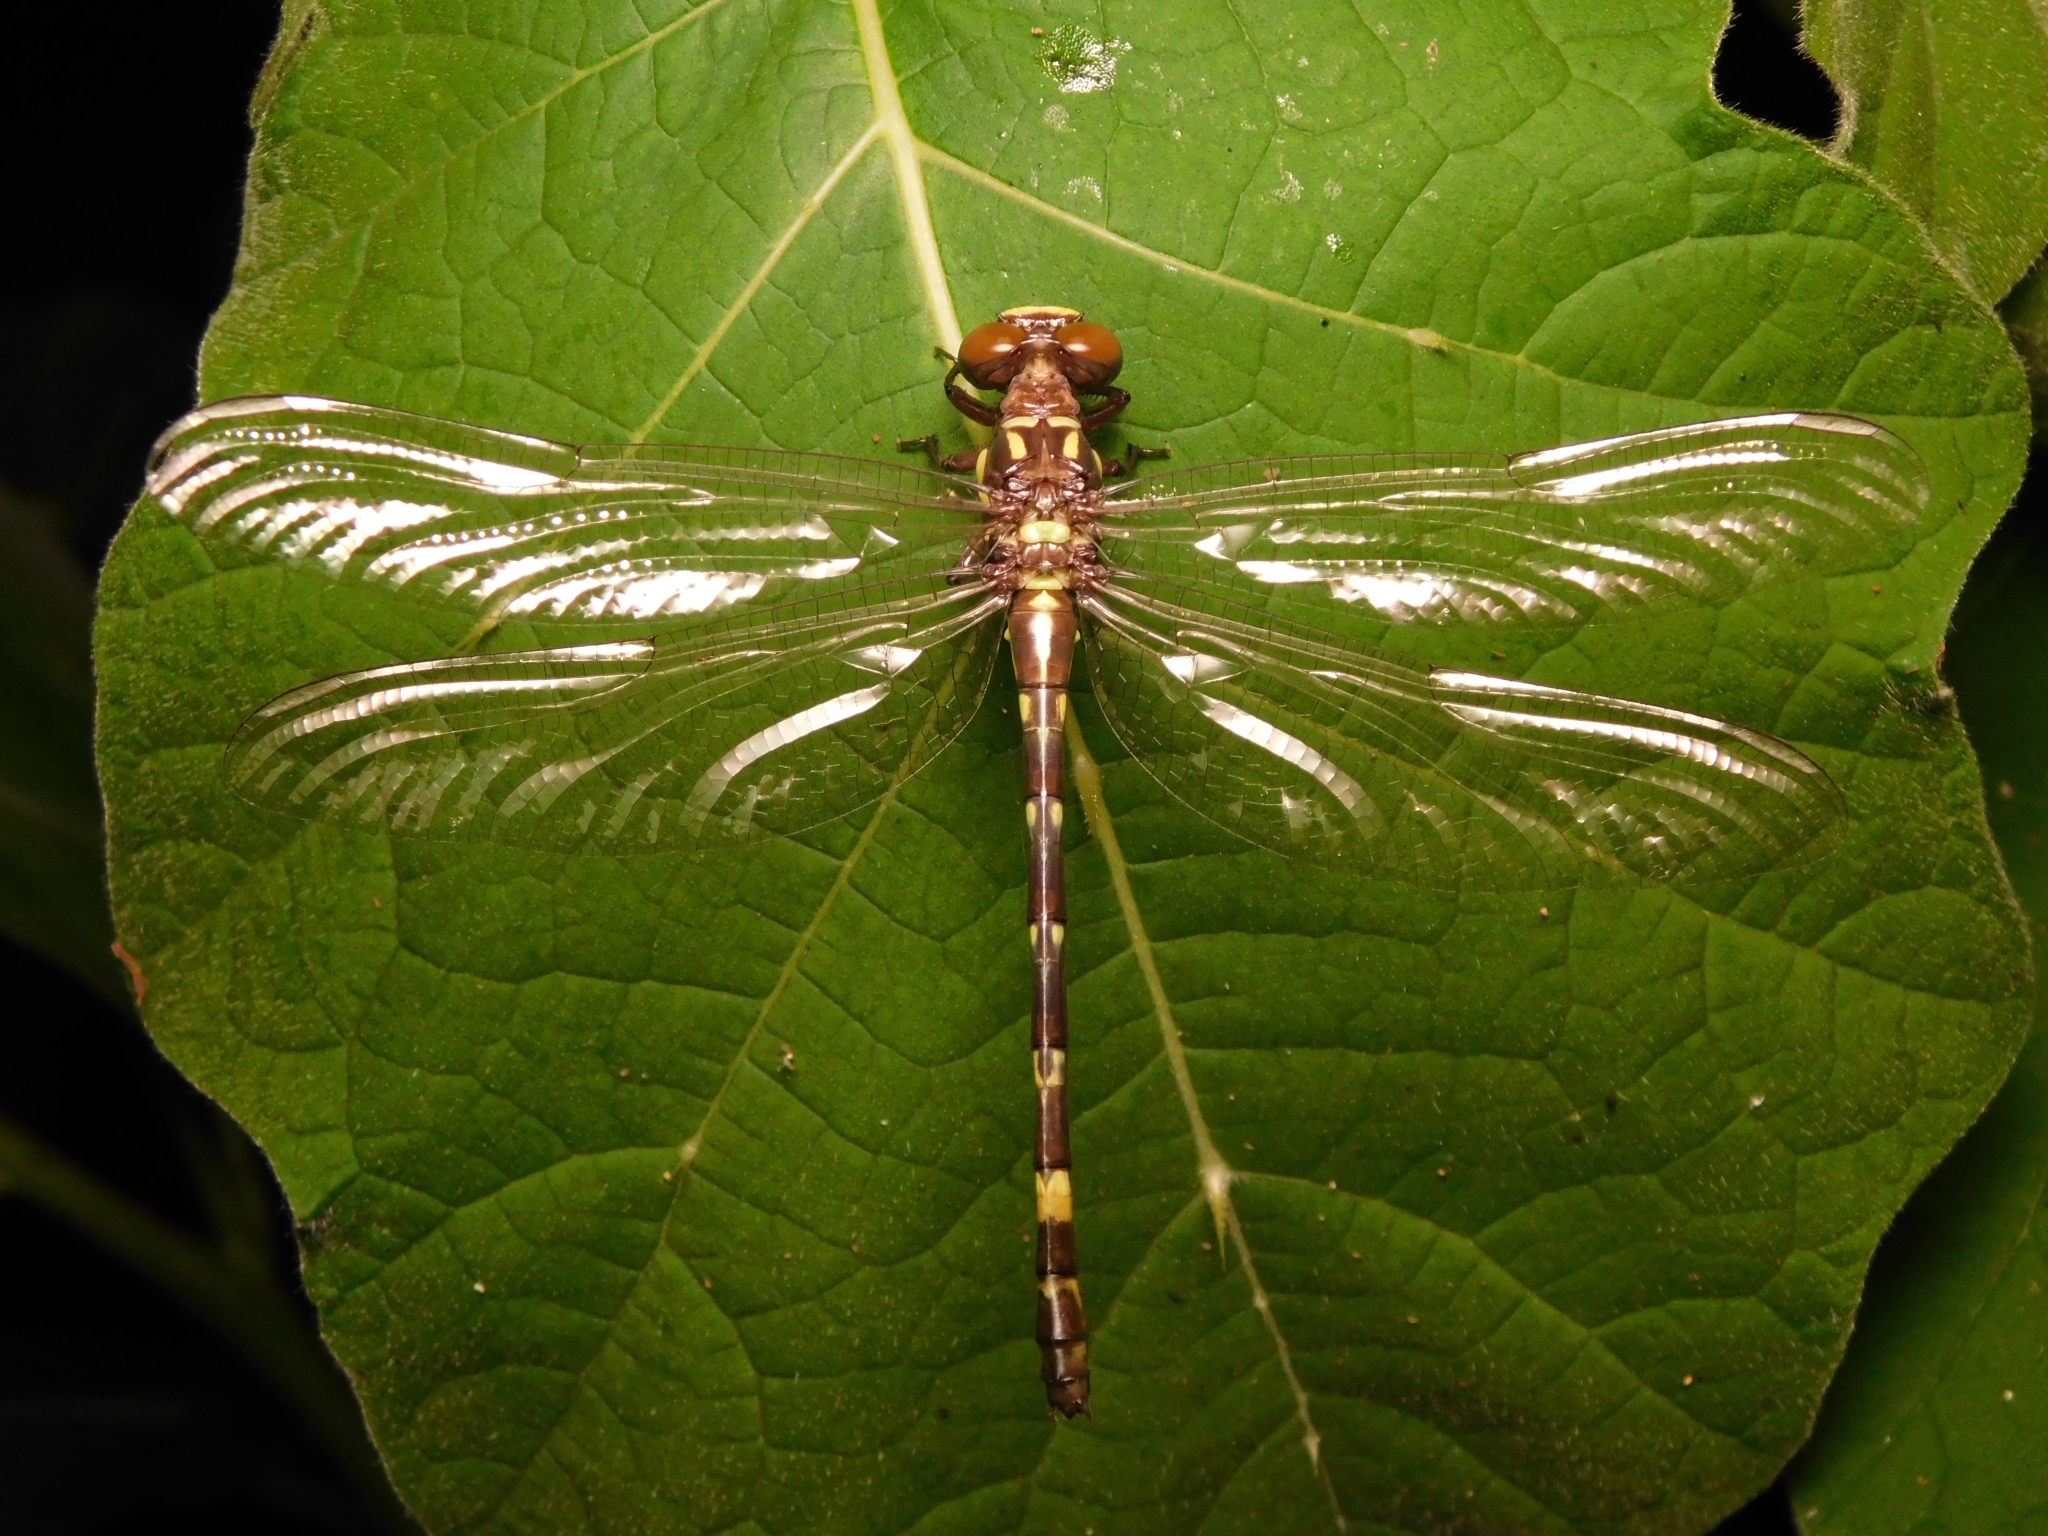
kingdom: Animalia
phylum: Arthropoda
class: Insecta
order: Odonata
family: Gomphidae
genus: Acrogomphus
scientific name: Acrogomphus fraseri
